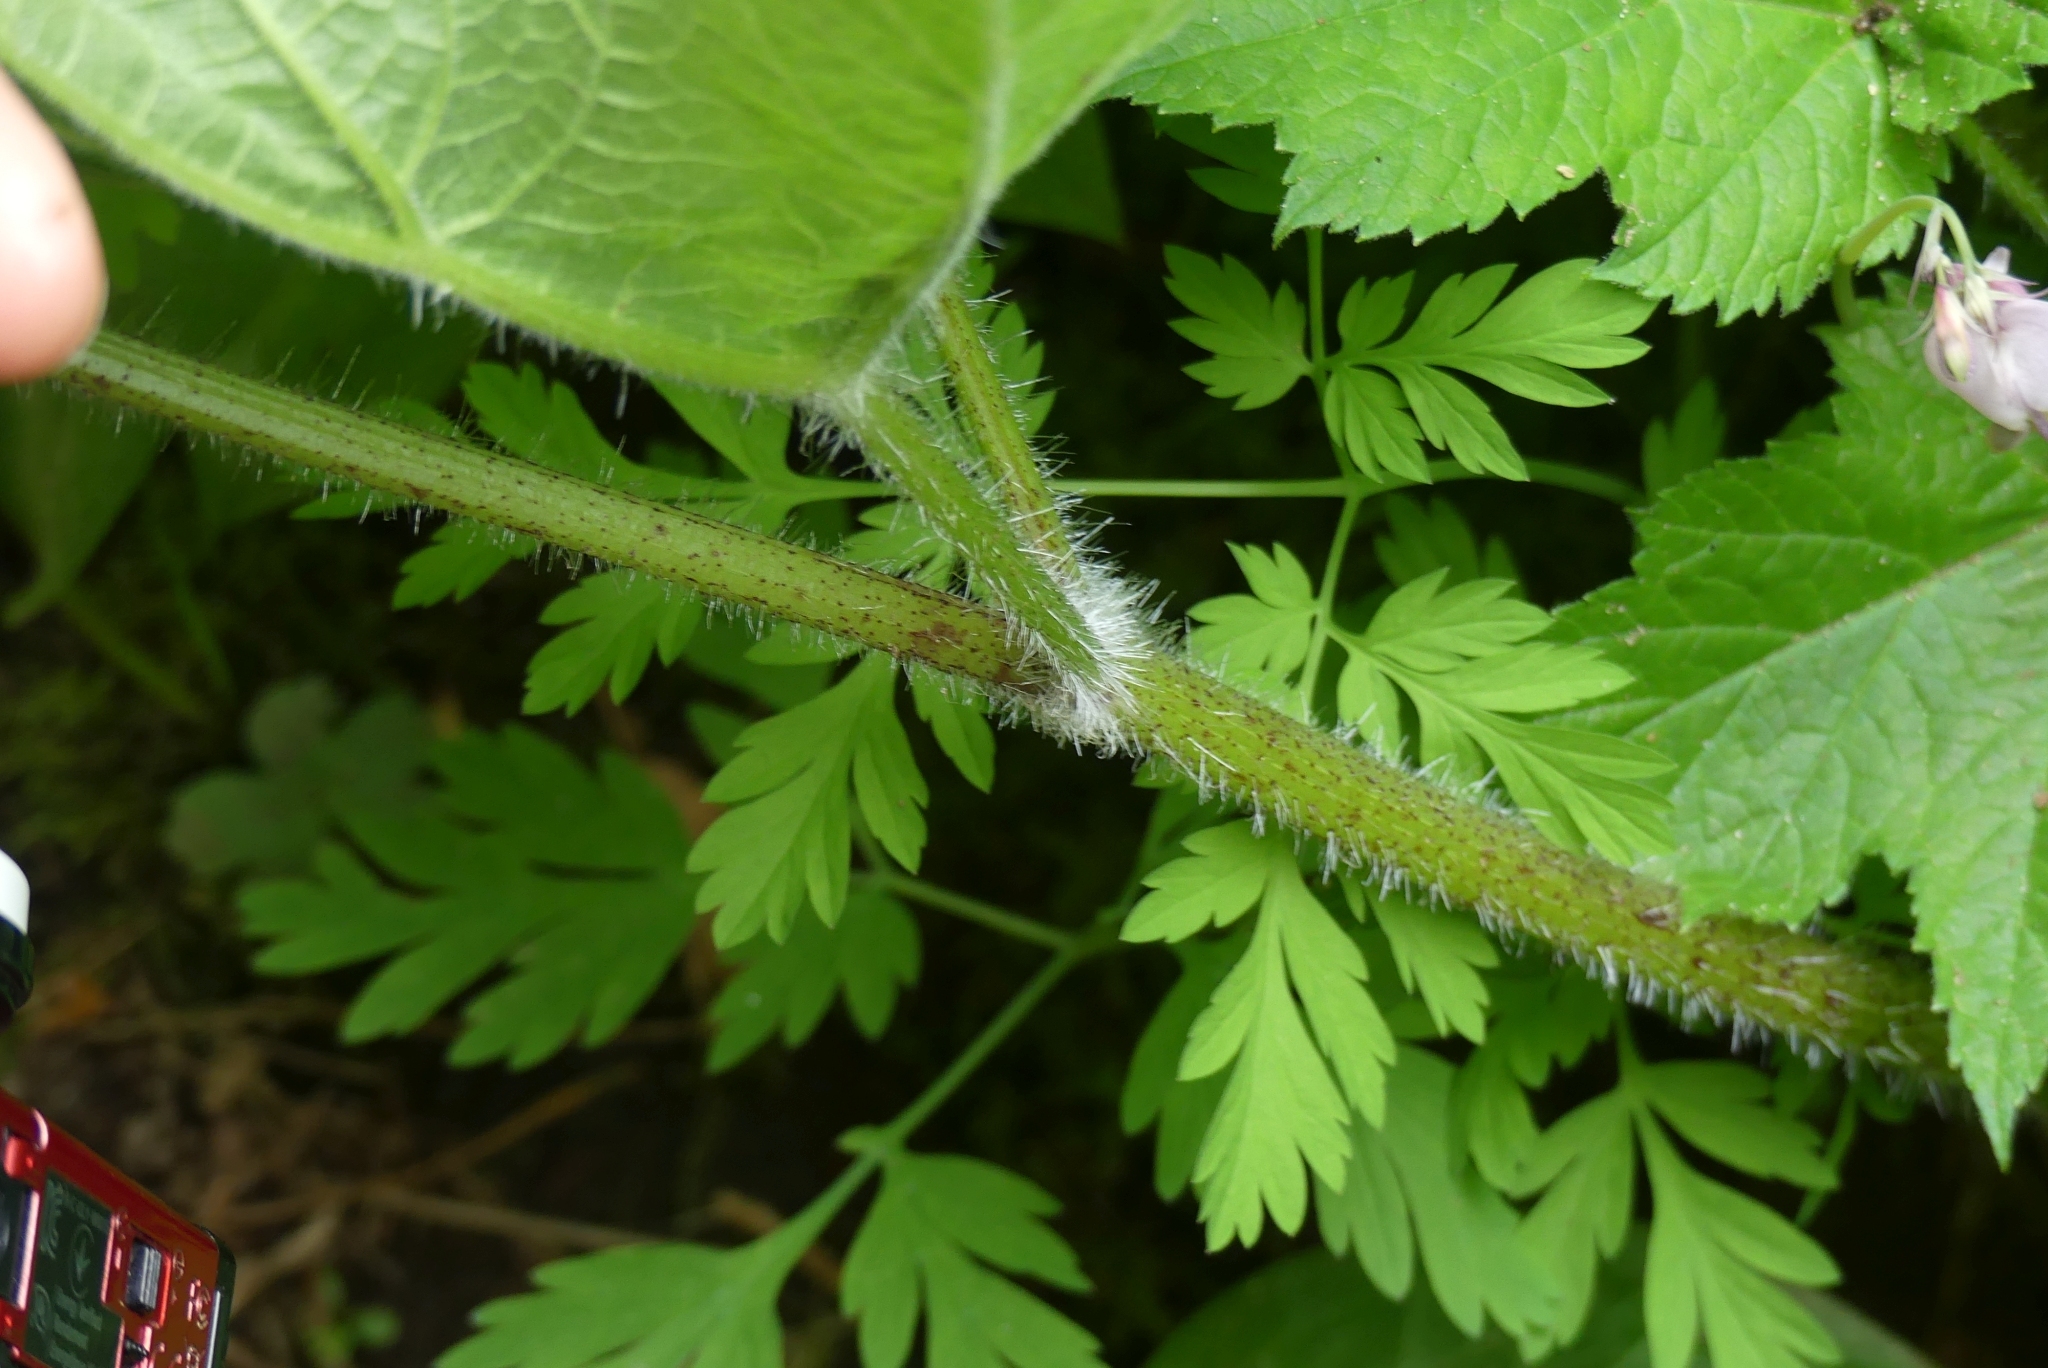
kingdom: Plantae
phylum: Tracheophyta
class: Magnoliopsida
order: Apiales
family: Apiaceae
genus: Heracleum
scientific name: Heracleum maximum
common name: American cow parsnip
